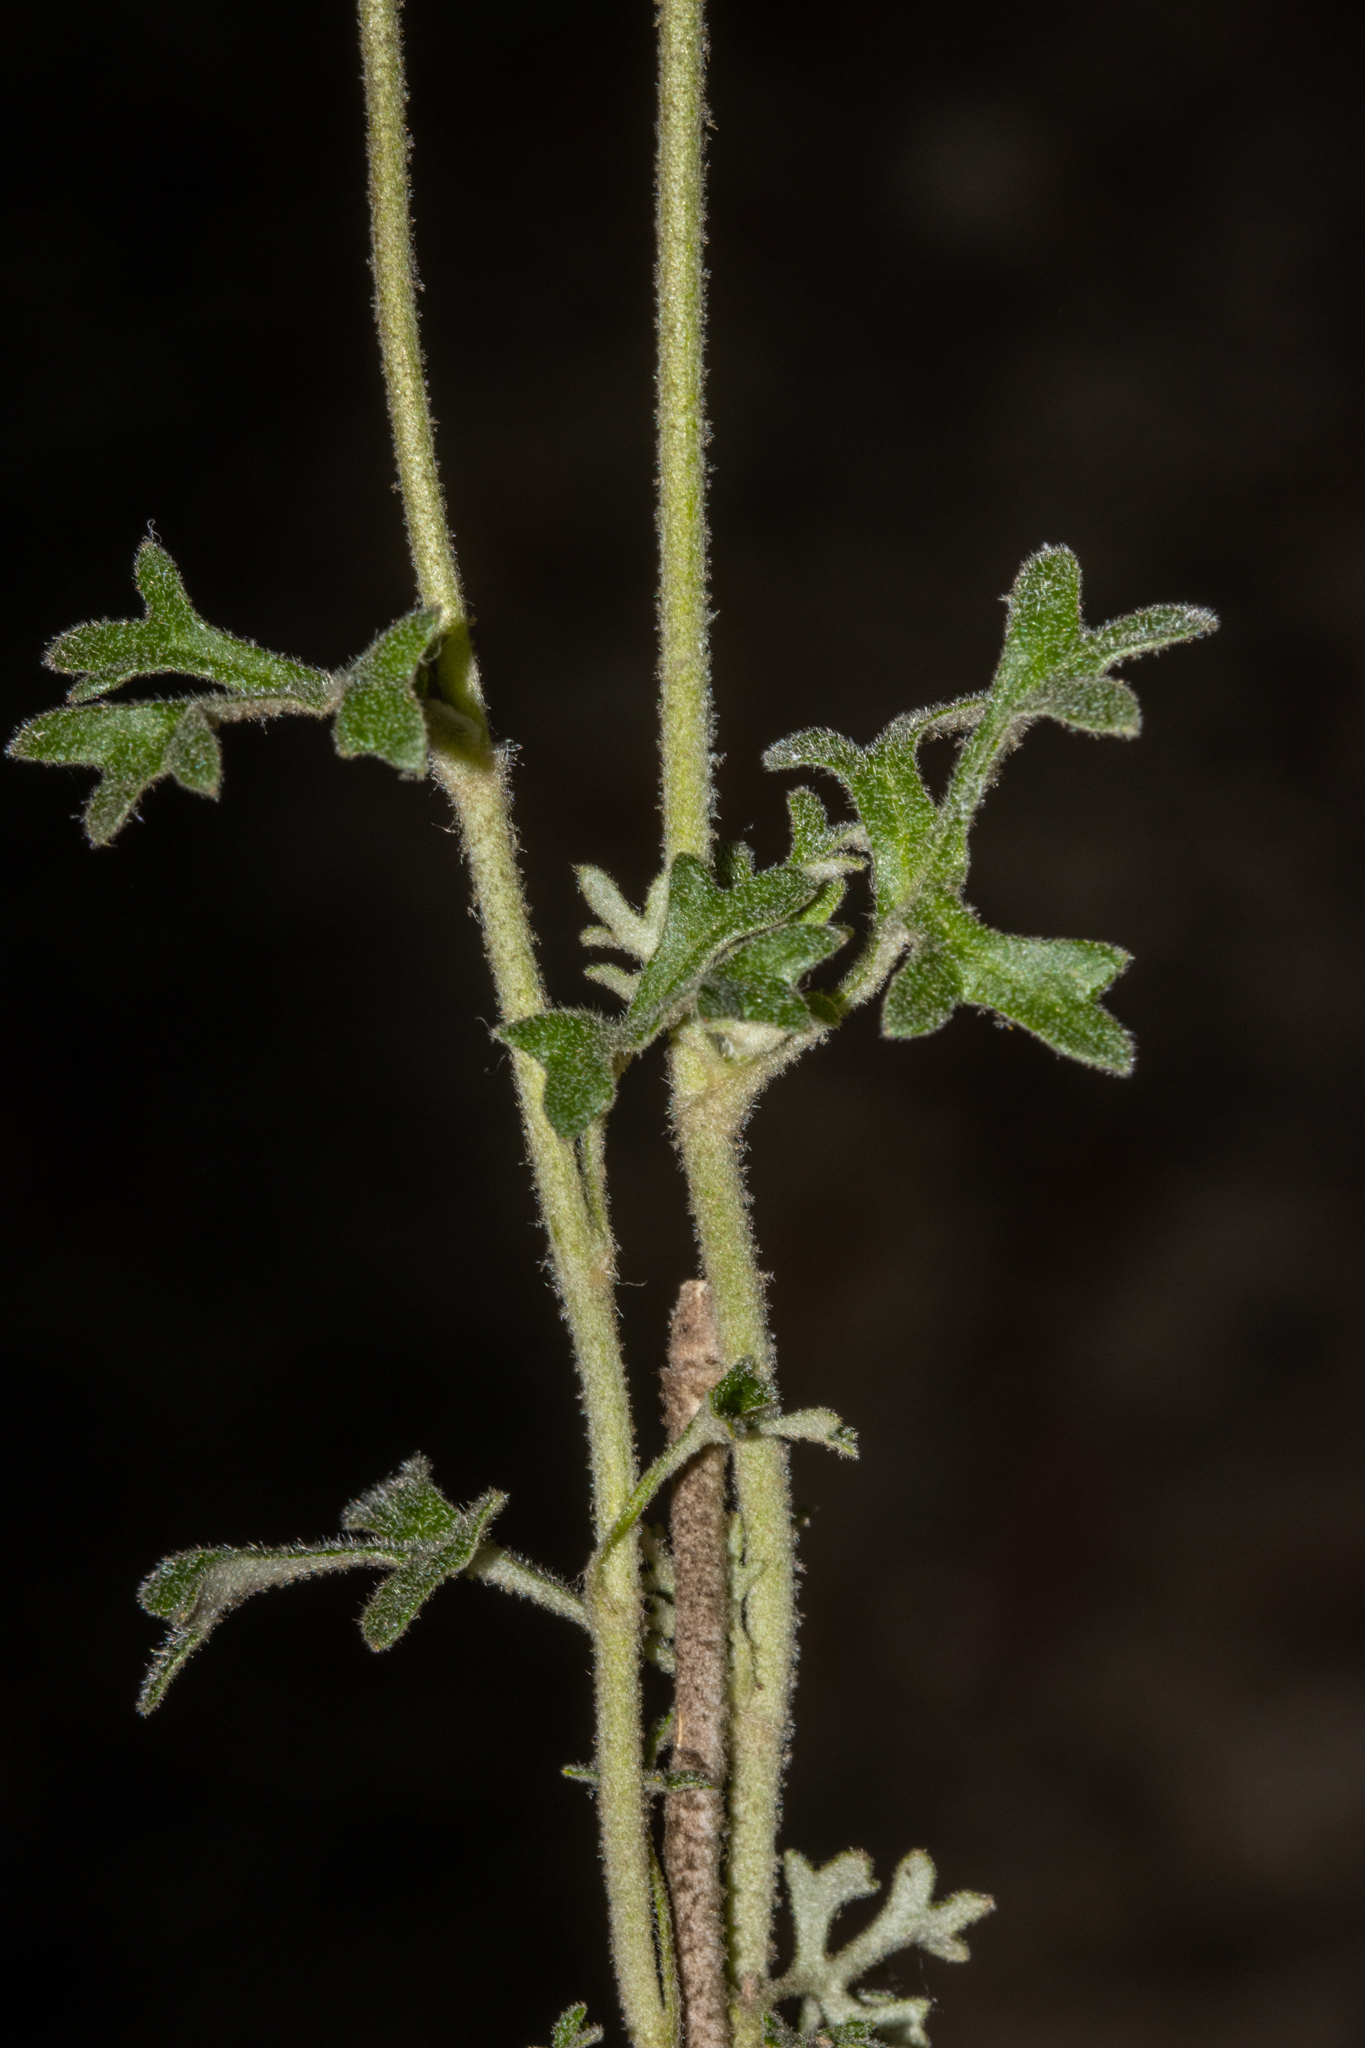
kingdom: Plantae
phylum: Tracheophyta
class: Magnoliopsida
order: Apiales
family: Apiaceae
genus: Actinotus
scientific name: Actinotus helianthi
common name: Flannel-flower
